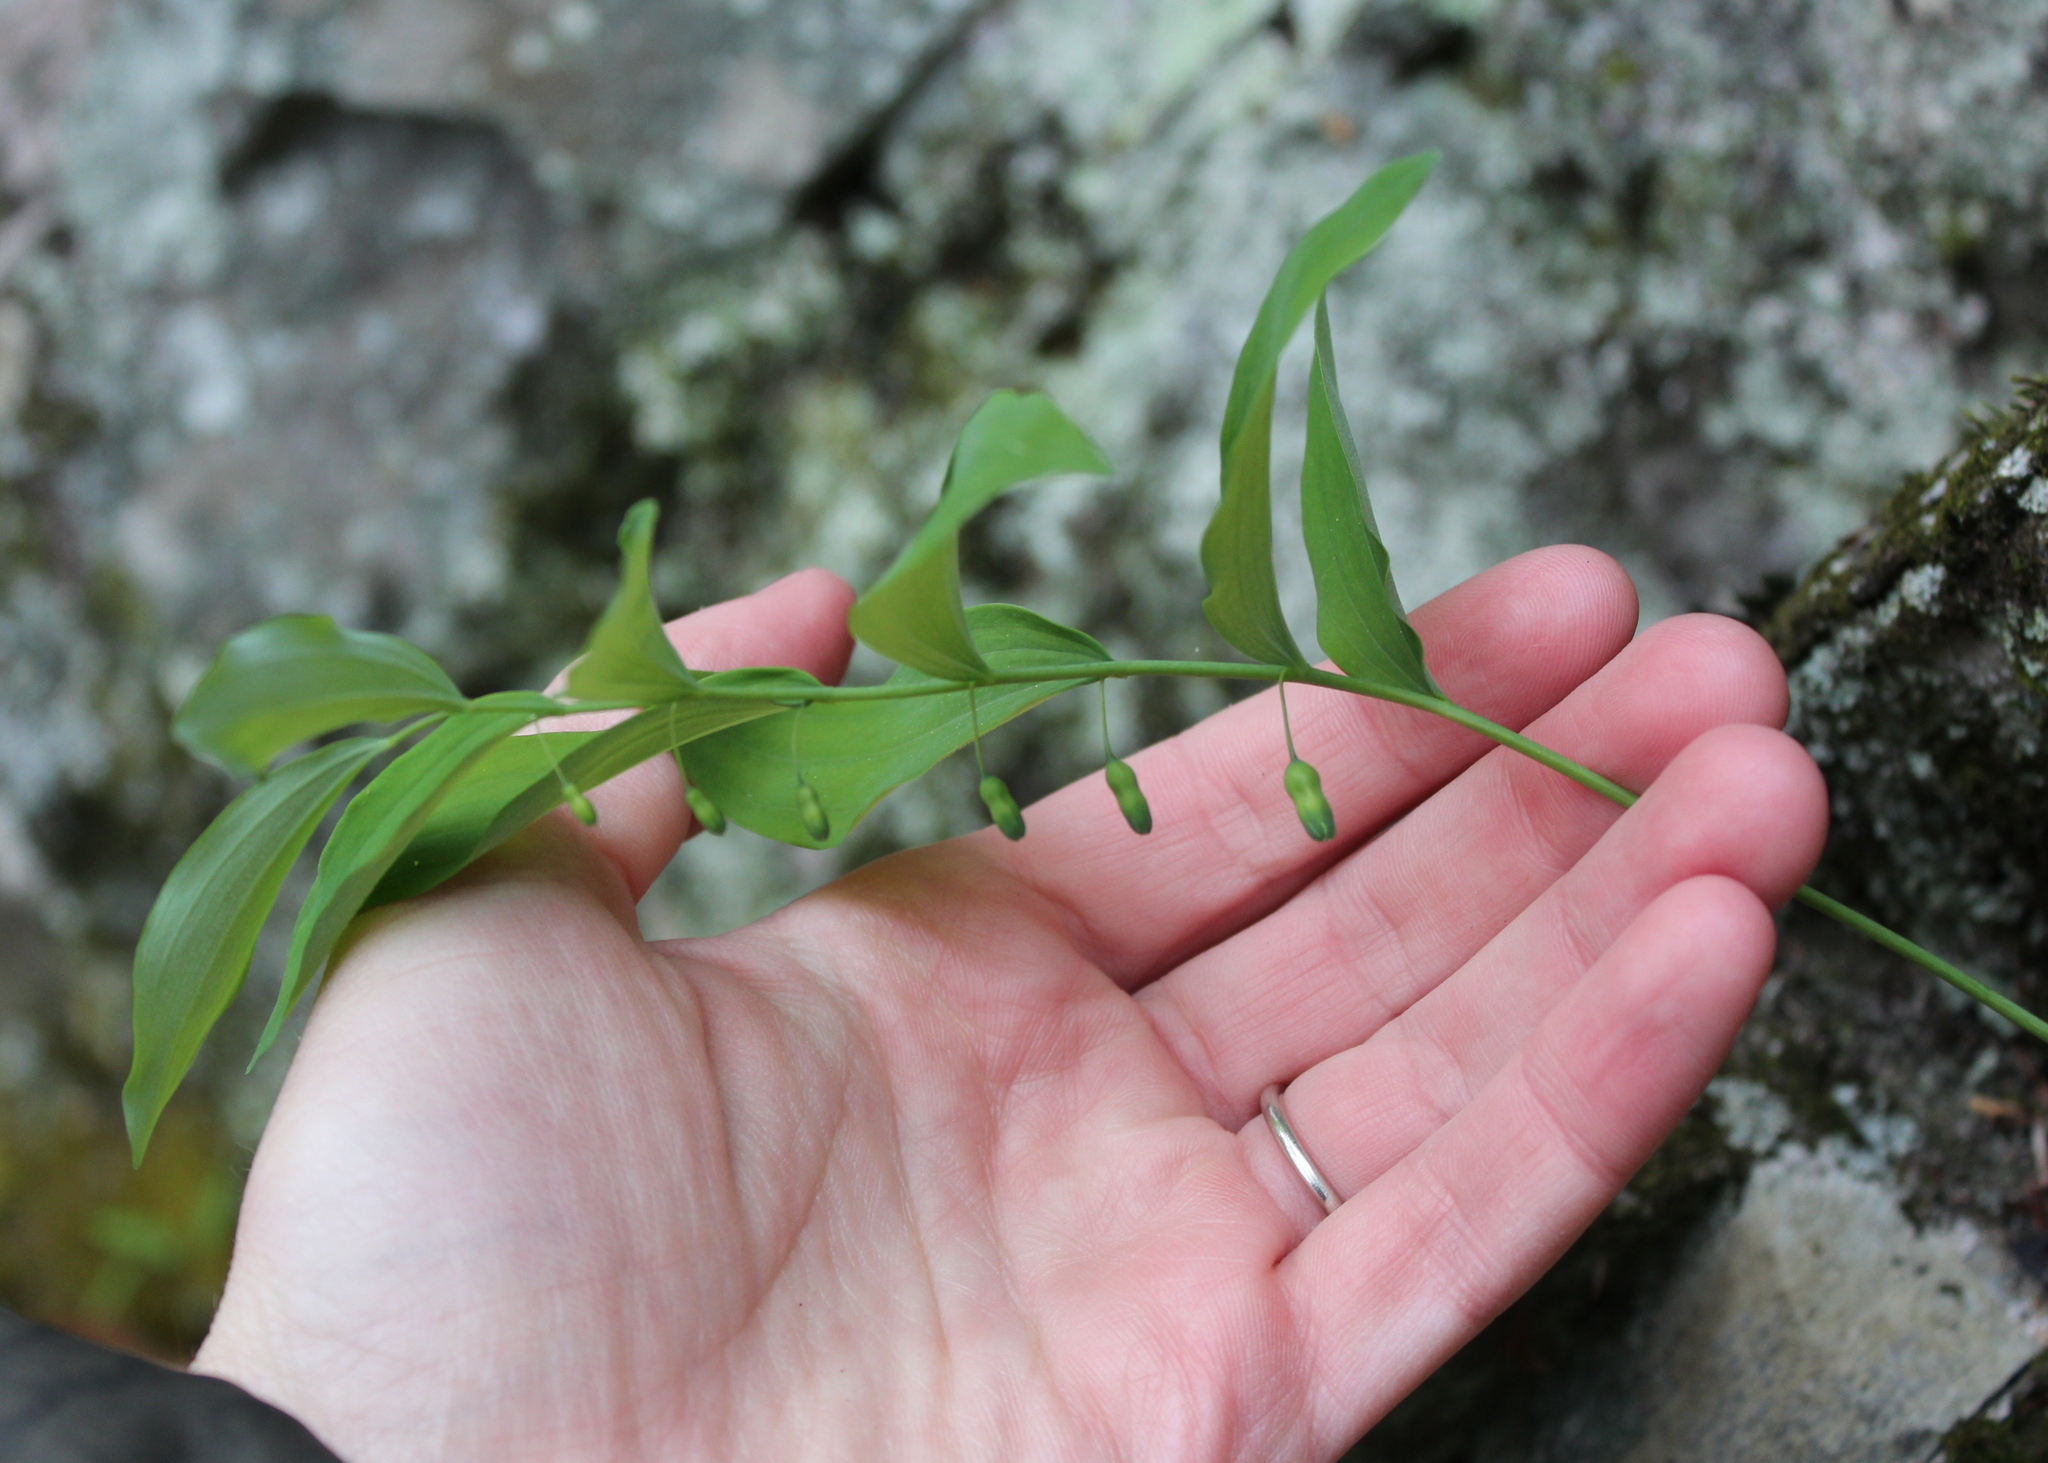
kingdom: Plantae
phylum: Tracheophyta
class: Liliopsida
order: Asparagales
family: Asparagaceae
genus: Polygonatum
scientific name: Polygonatum pubescens
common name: Downy solomon's seal
